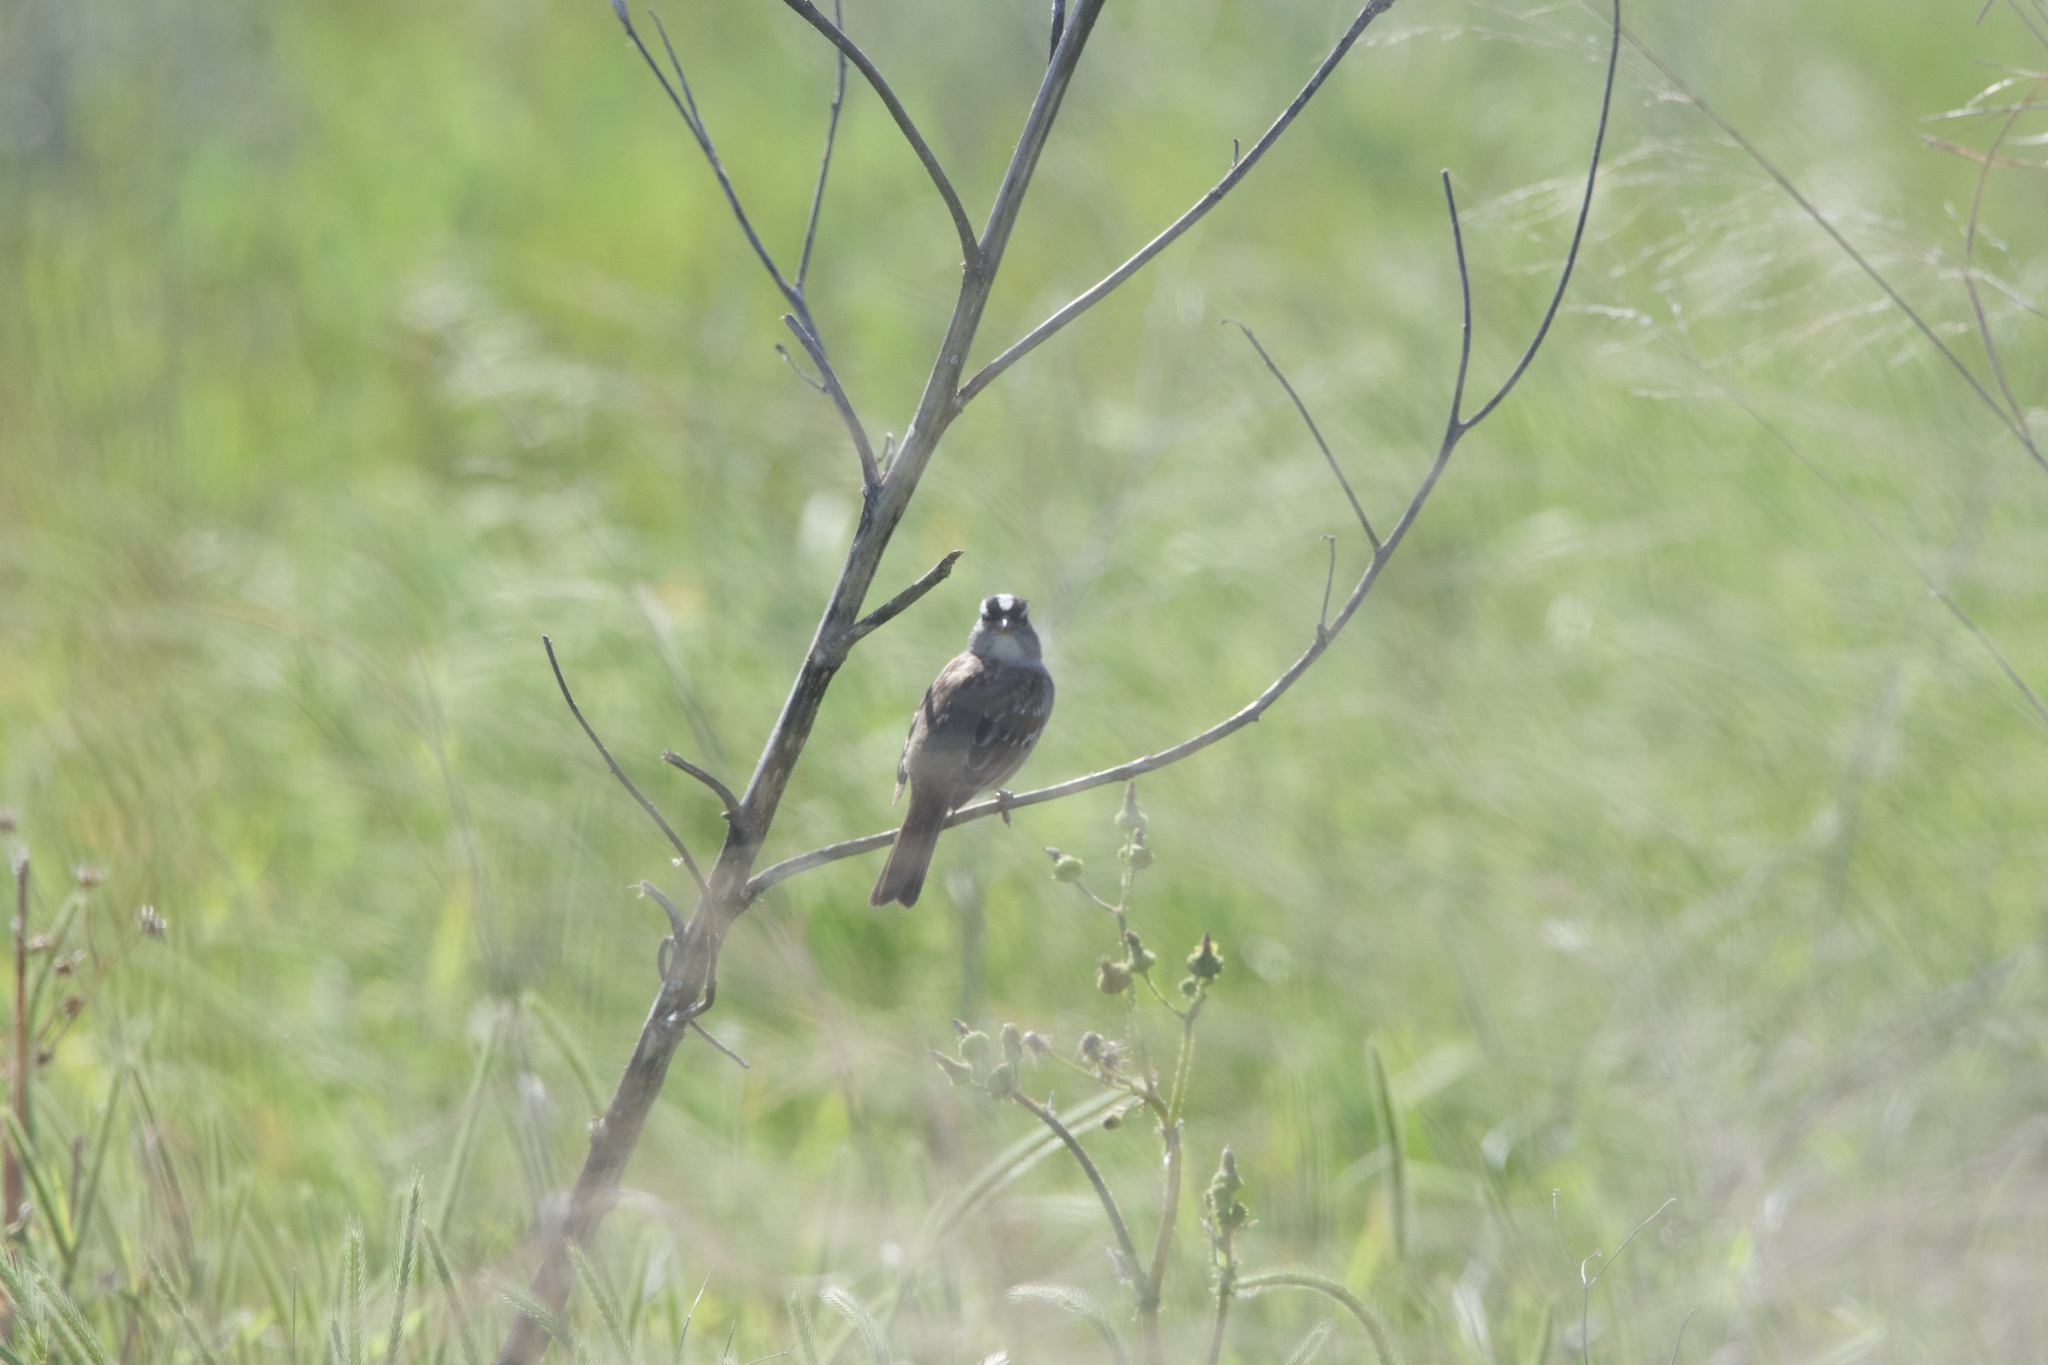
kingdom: Animalia
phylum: Chordata
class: Aves
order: Passeriformes
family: Passerellidae
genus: Zonotrichia
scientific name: Zonotrichia leucophrys
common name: White-crowned sparrow
